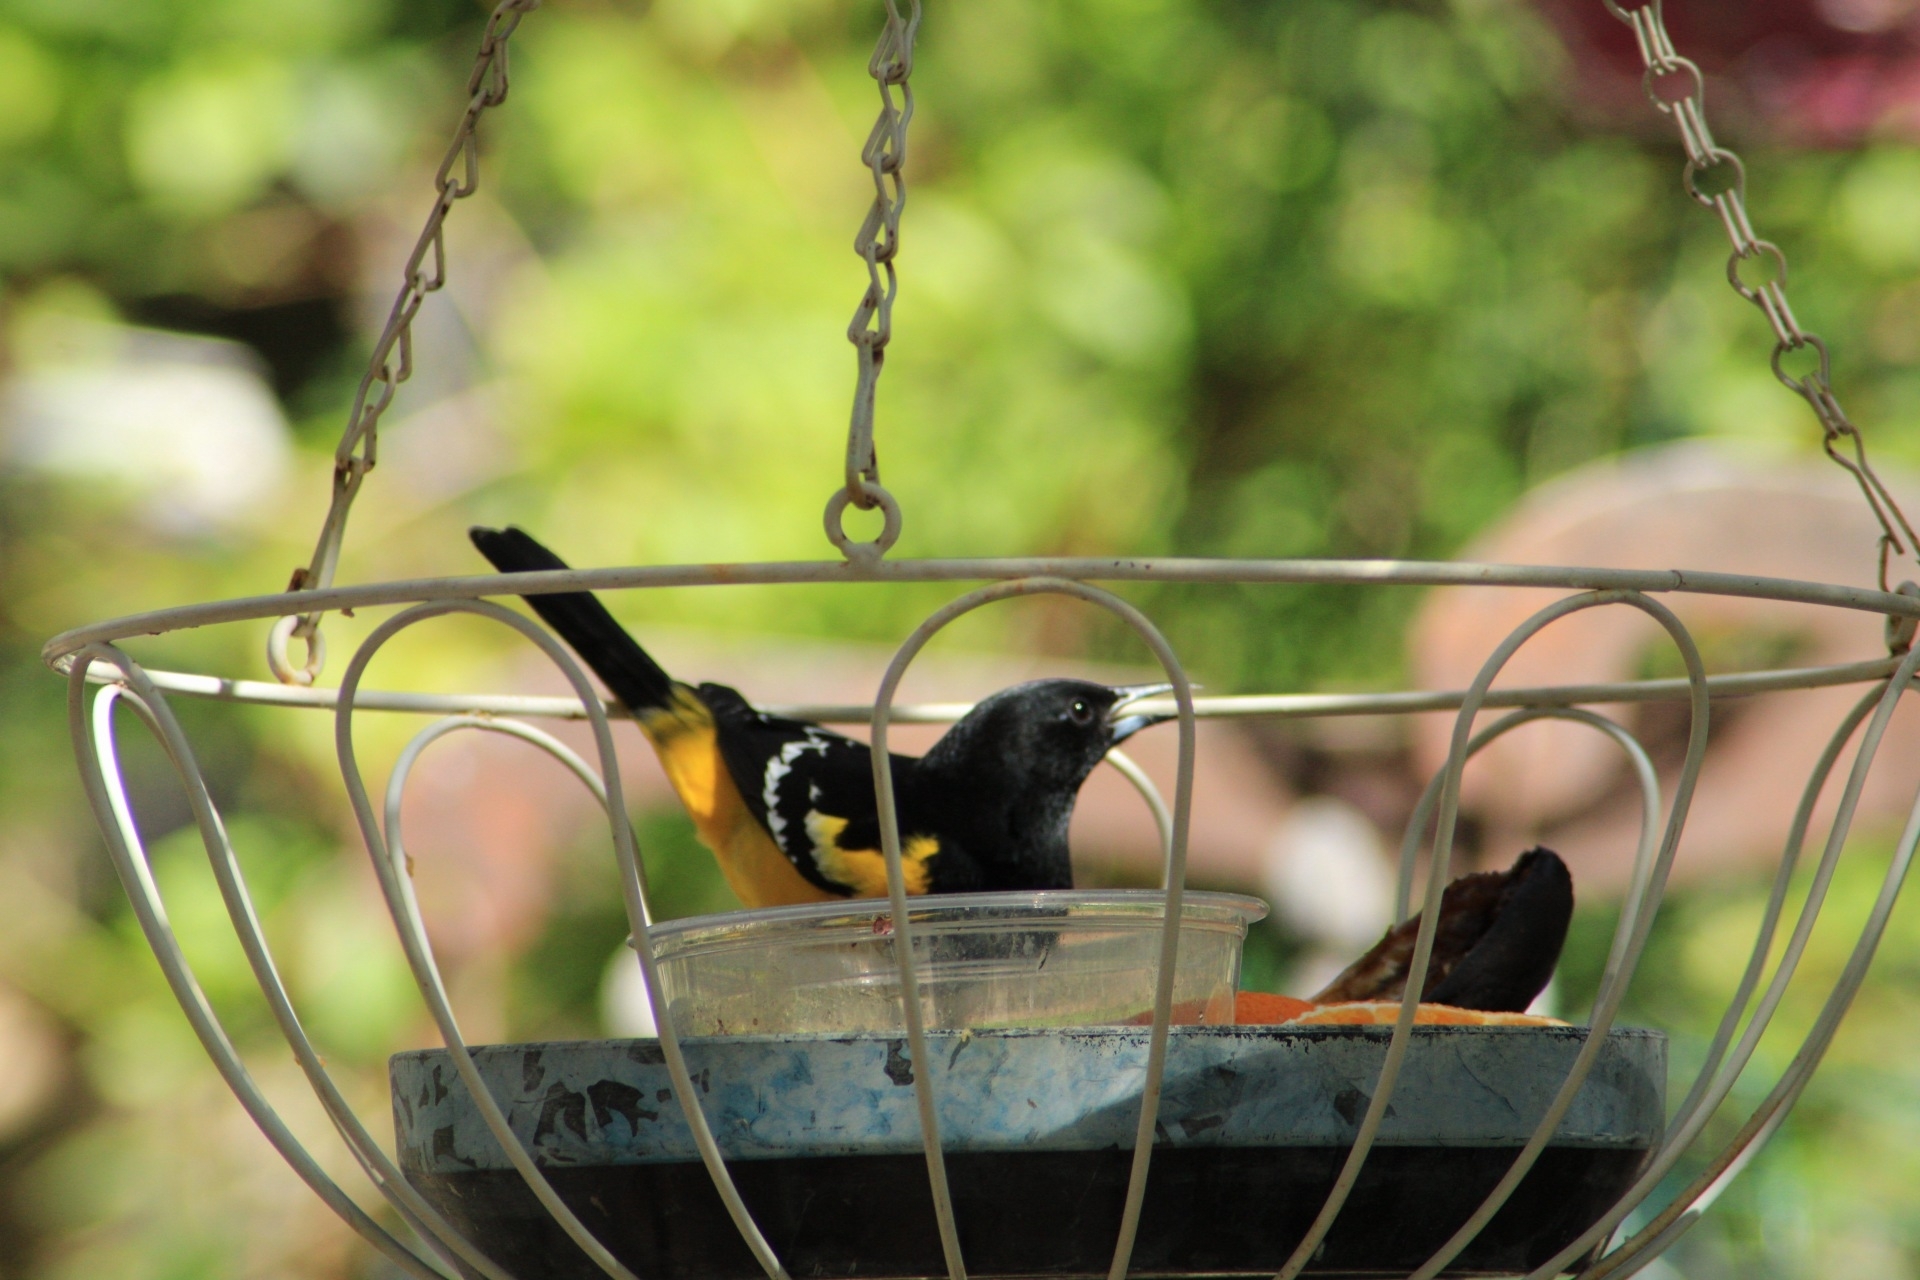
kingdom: Animalia
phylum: Chordata
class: Aves
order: Passeriformes
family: Icteridae
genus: Icterus
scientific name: Icterus parisorum
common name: Scott's oriole
